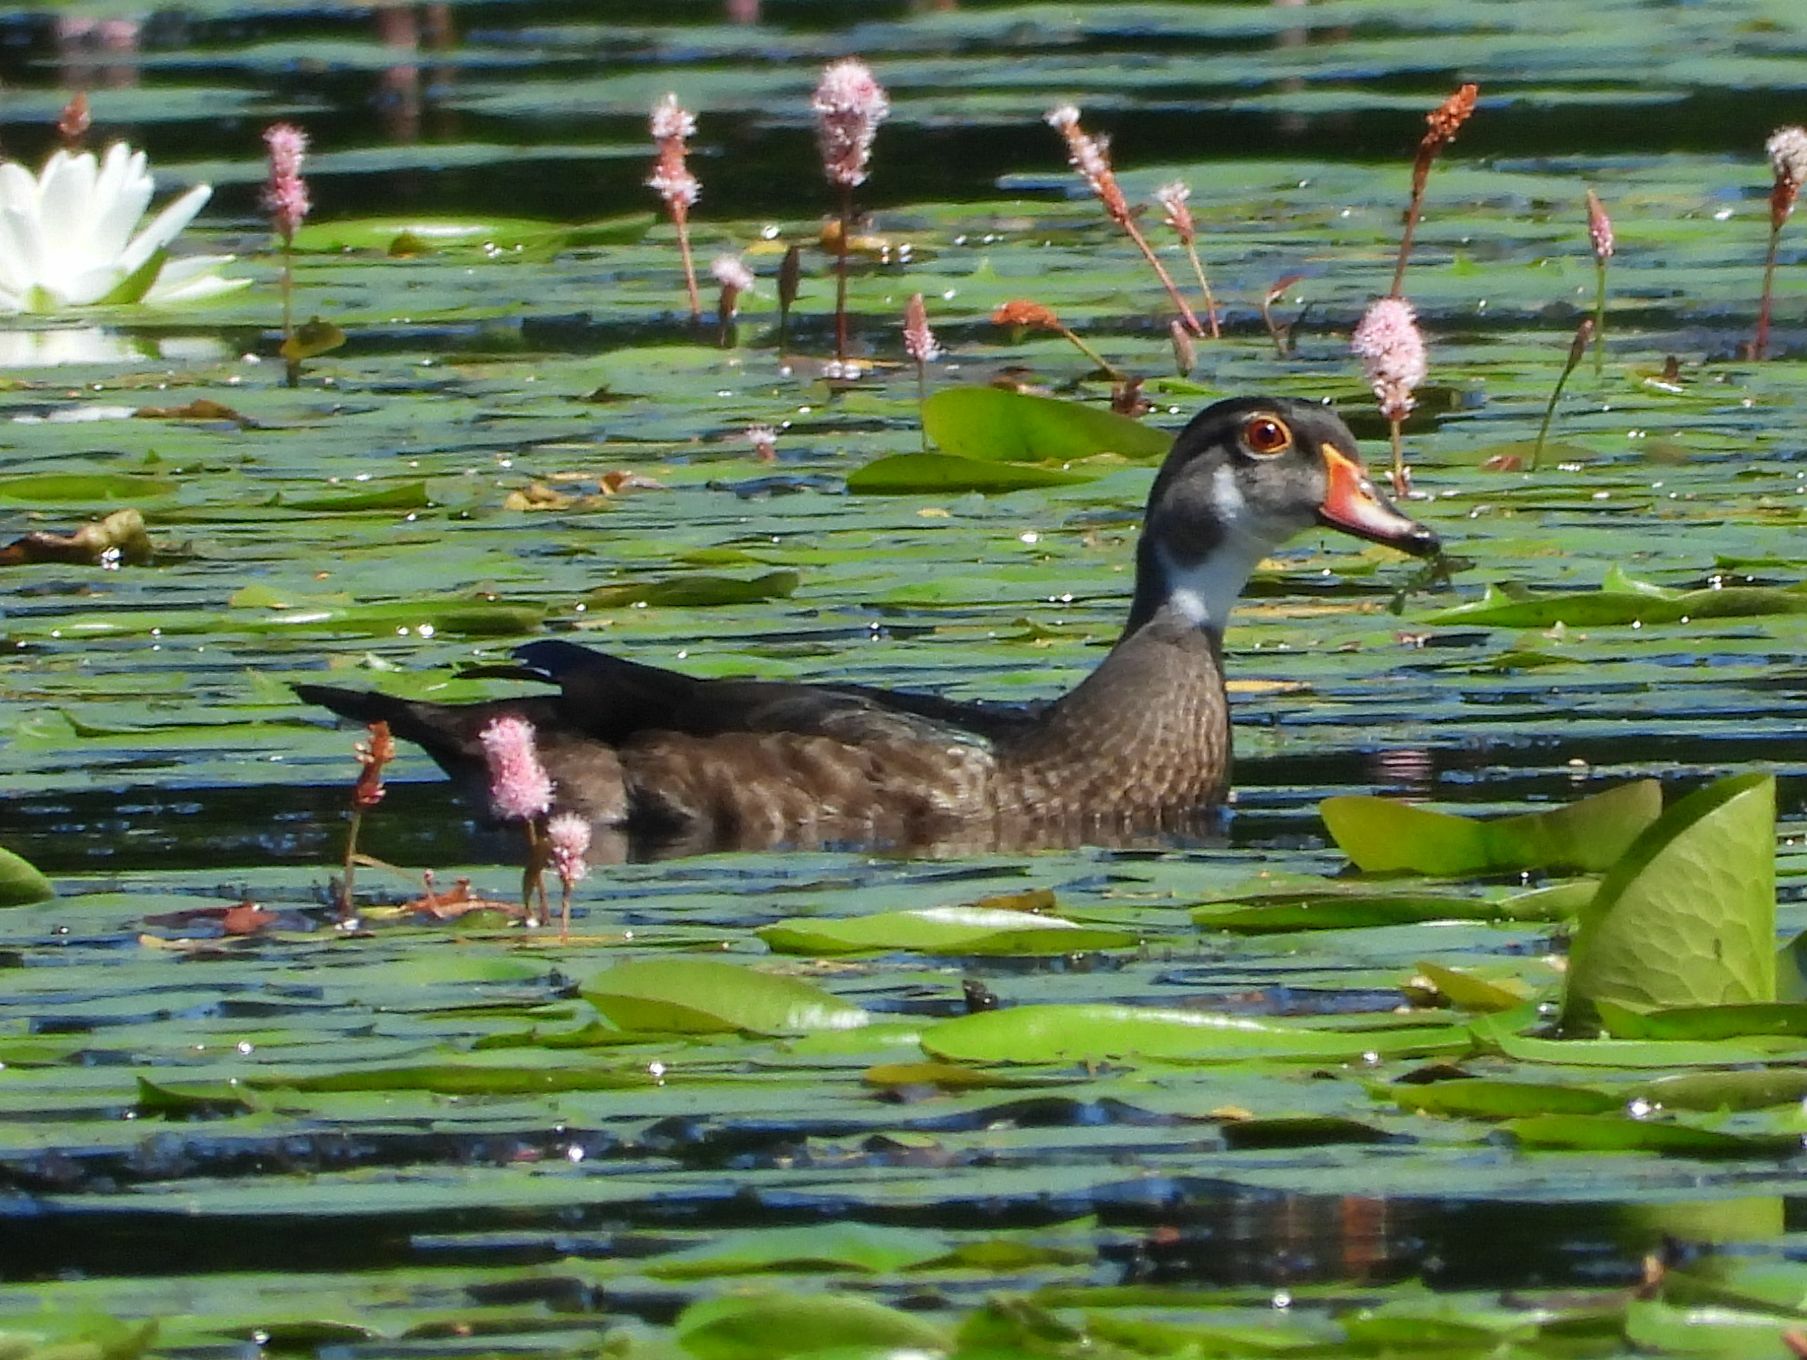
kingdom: Animalia
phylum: Chordata
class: Aves
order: Anseriformes
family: Anatidae
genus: Aix
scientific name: Aix sponsa
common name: Wood duck
